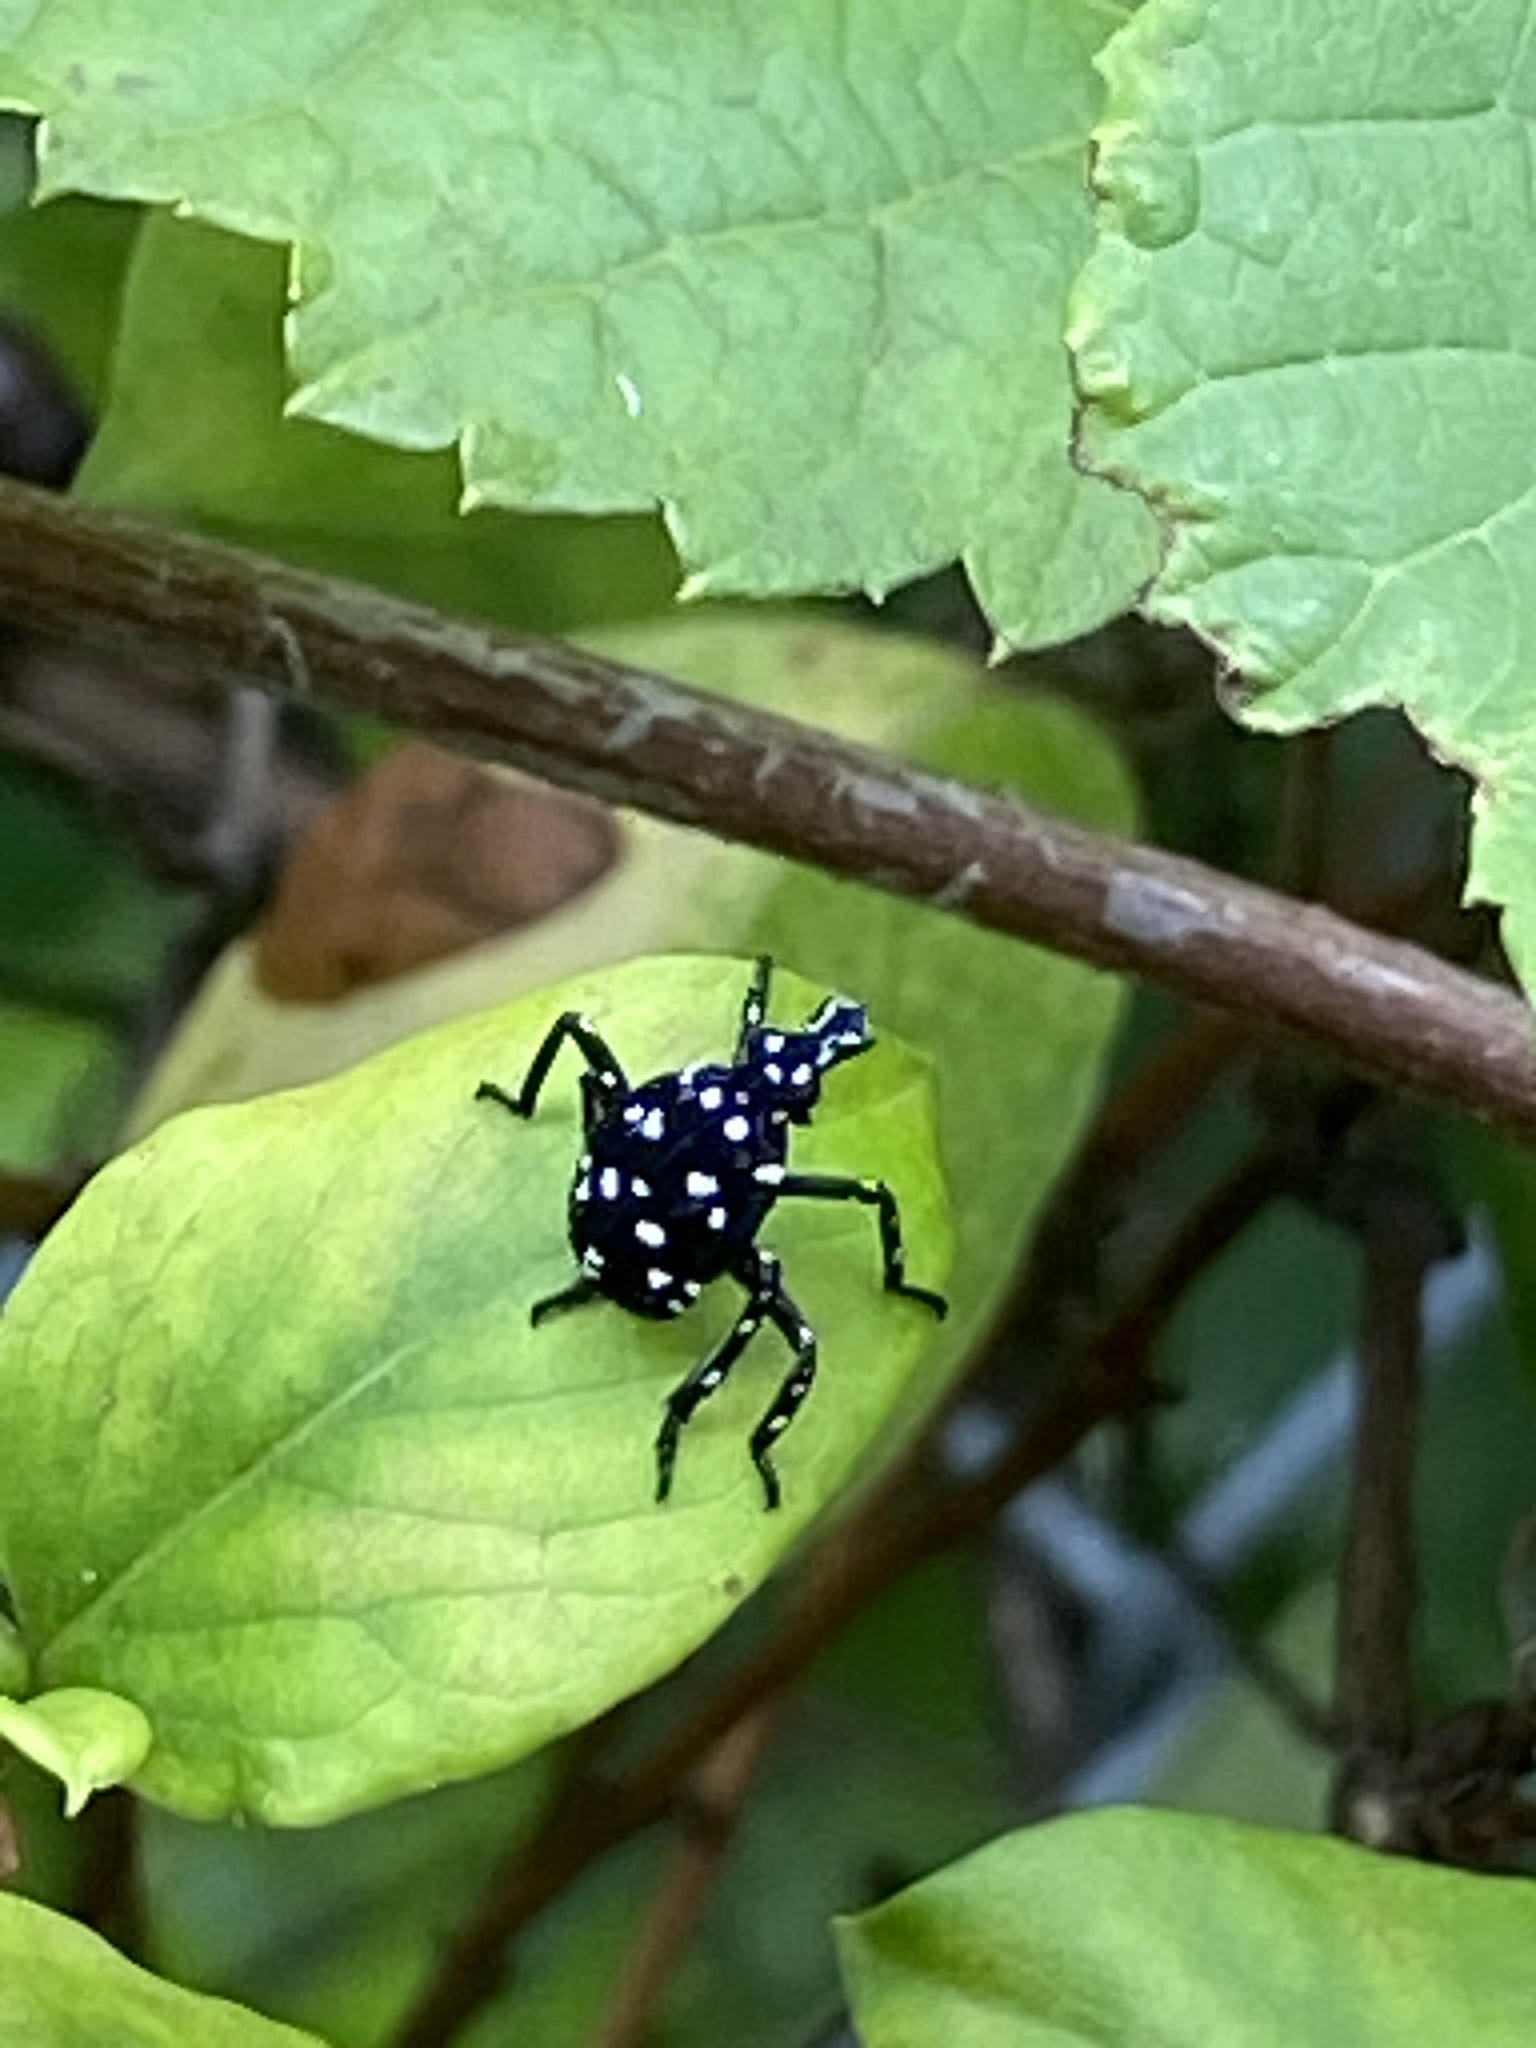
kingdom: Animalia
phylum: Arthropoda
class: Insecta
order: Hemiptera
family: Fulgoridae
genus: Lycorma
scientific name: Lycorma delicatula
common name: Spotted lanternfly
